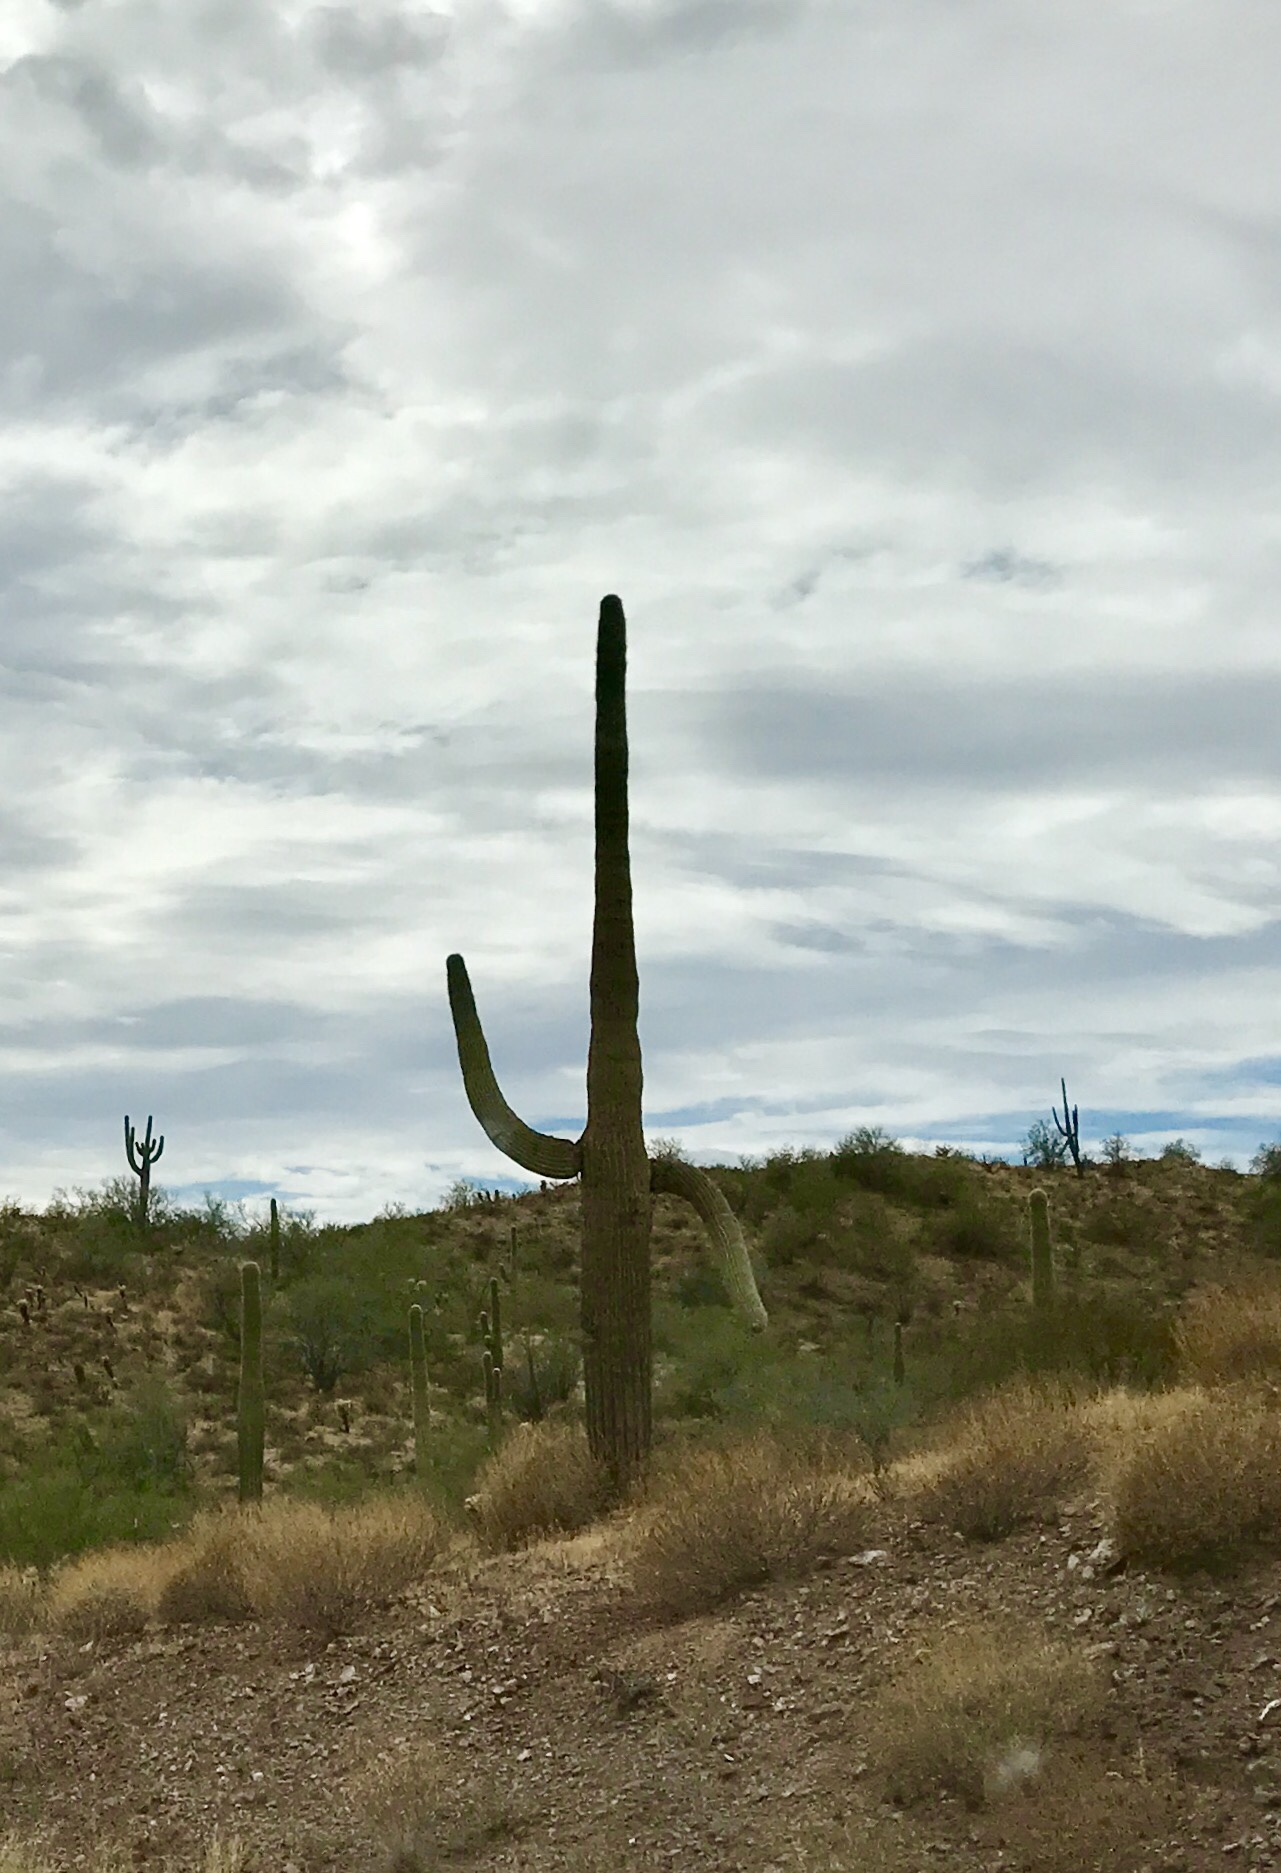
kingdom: Plantae
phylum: Tracheophyta
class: Magnoliopsida
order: Caryophyllales
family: Cactaceae
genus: Carnegiea
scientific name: Carnegiea gigantea
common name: Saguaro
